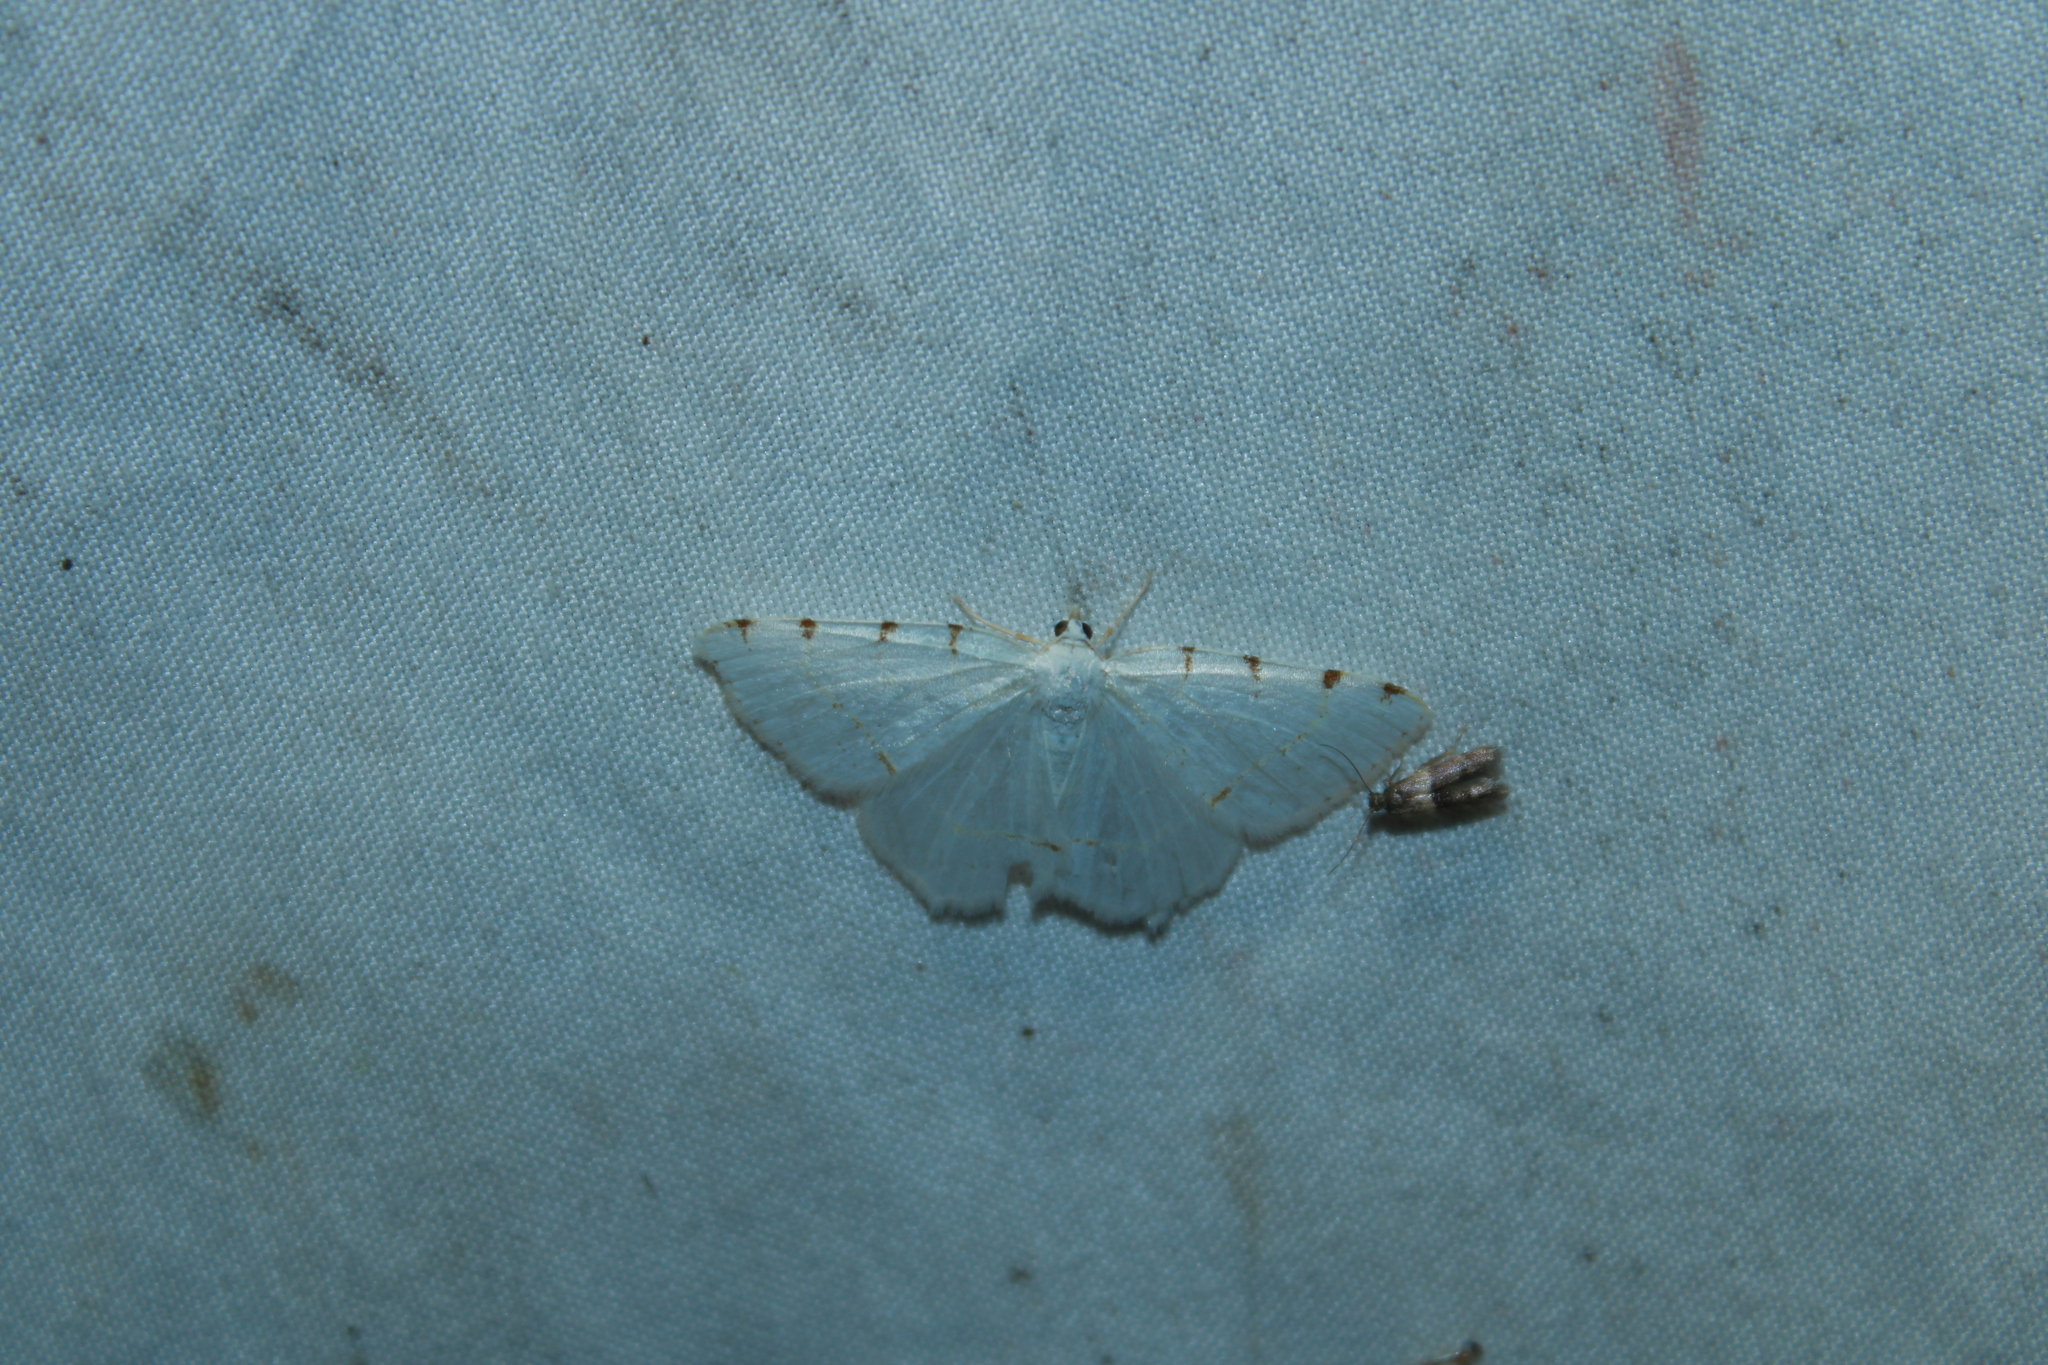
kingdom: Animalia
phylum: Arthropoda
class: Insecta
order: Lepidoptera
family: Geometridae
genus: Macaria
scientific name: Macaria pustularia
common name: Lesser maple spanworm moth
